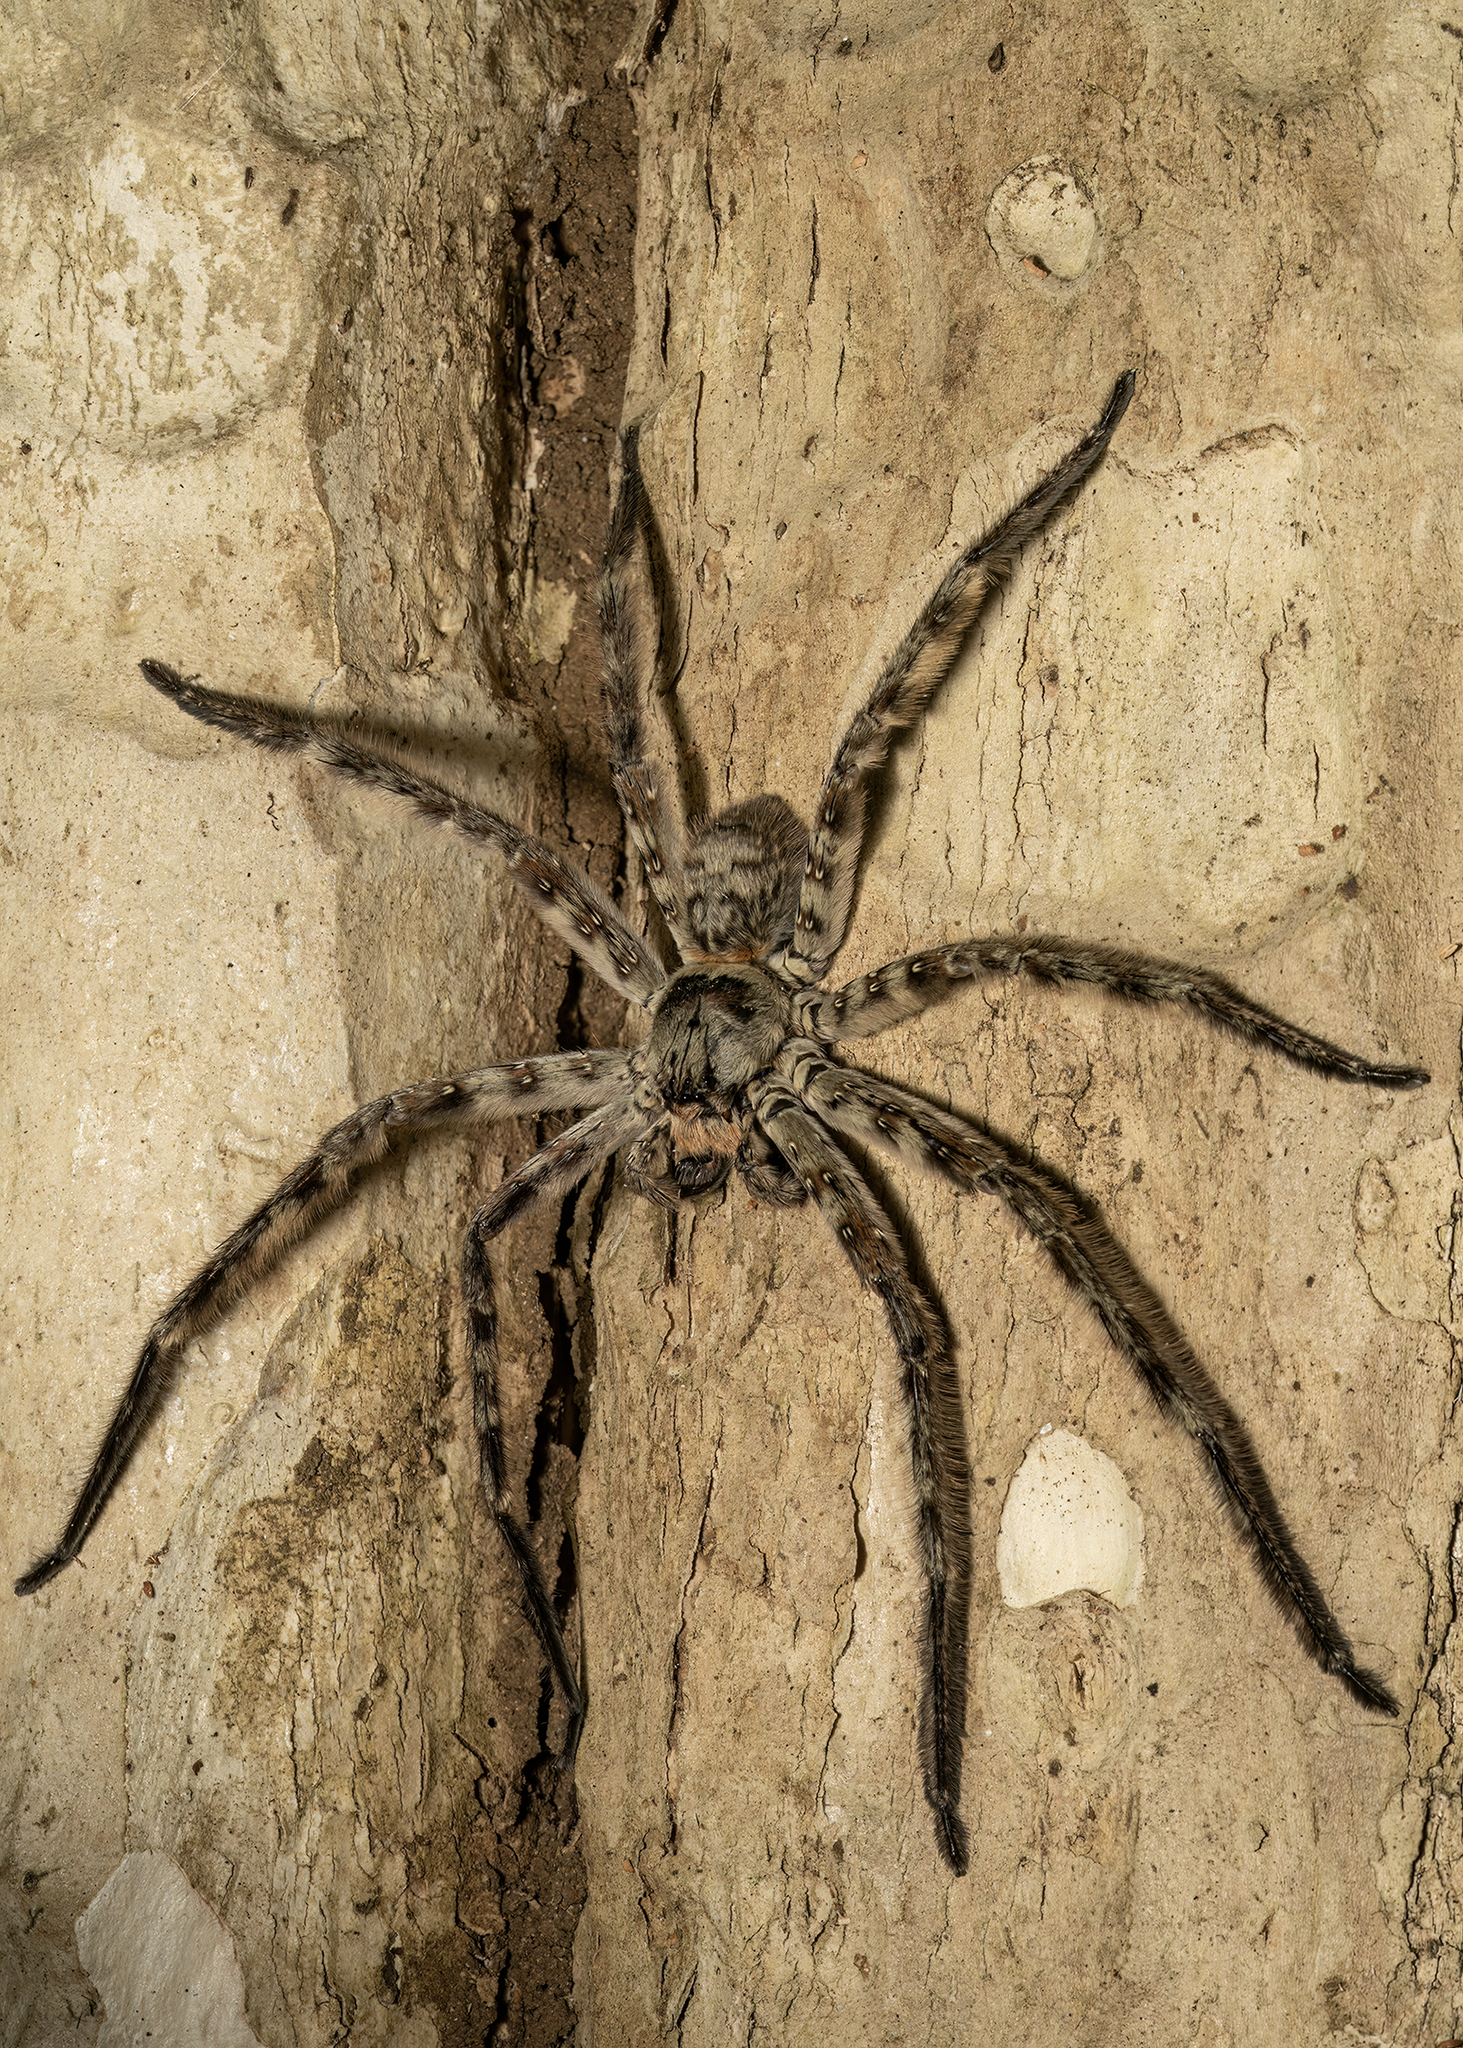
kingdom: Animalia
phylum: Arthropoda
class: Arachnida
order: Araneae
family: Sparassidae
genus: Heteropoda
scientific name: Heteropoda lunula
